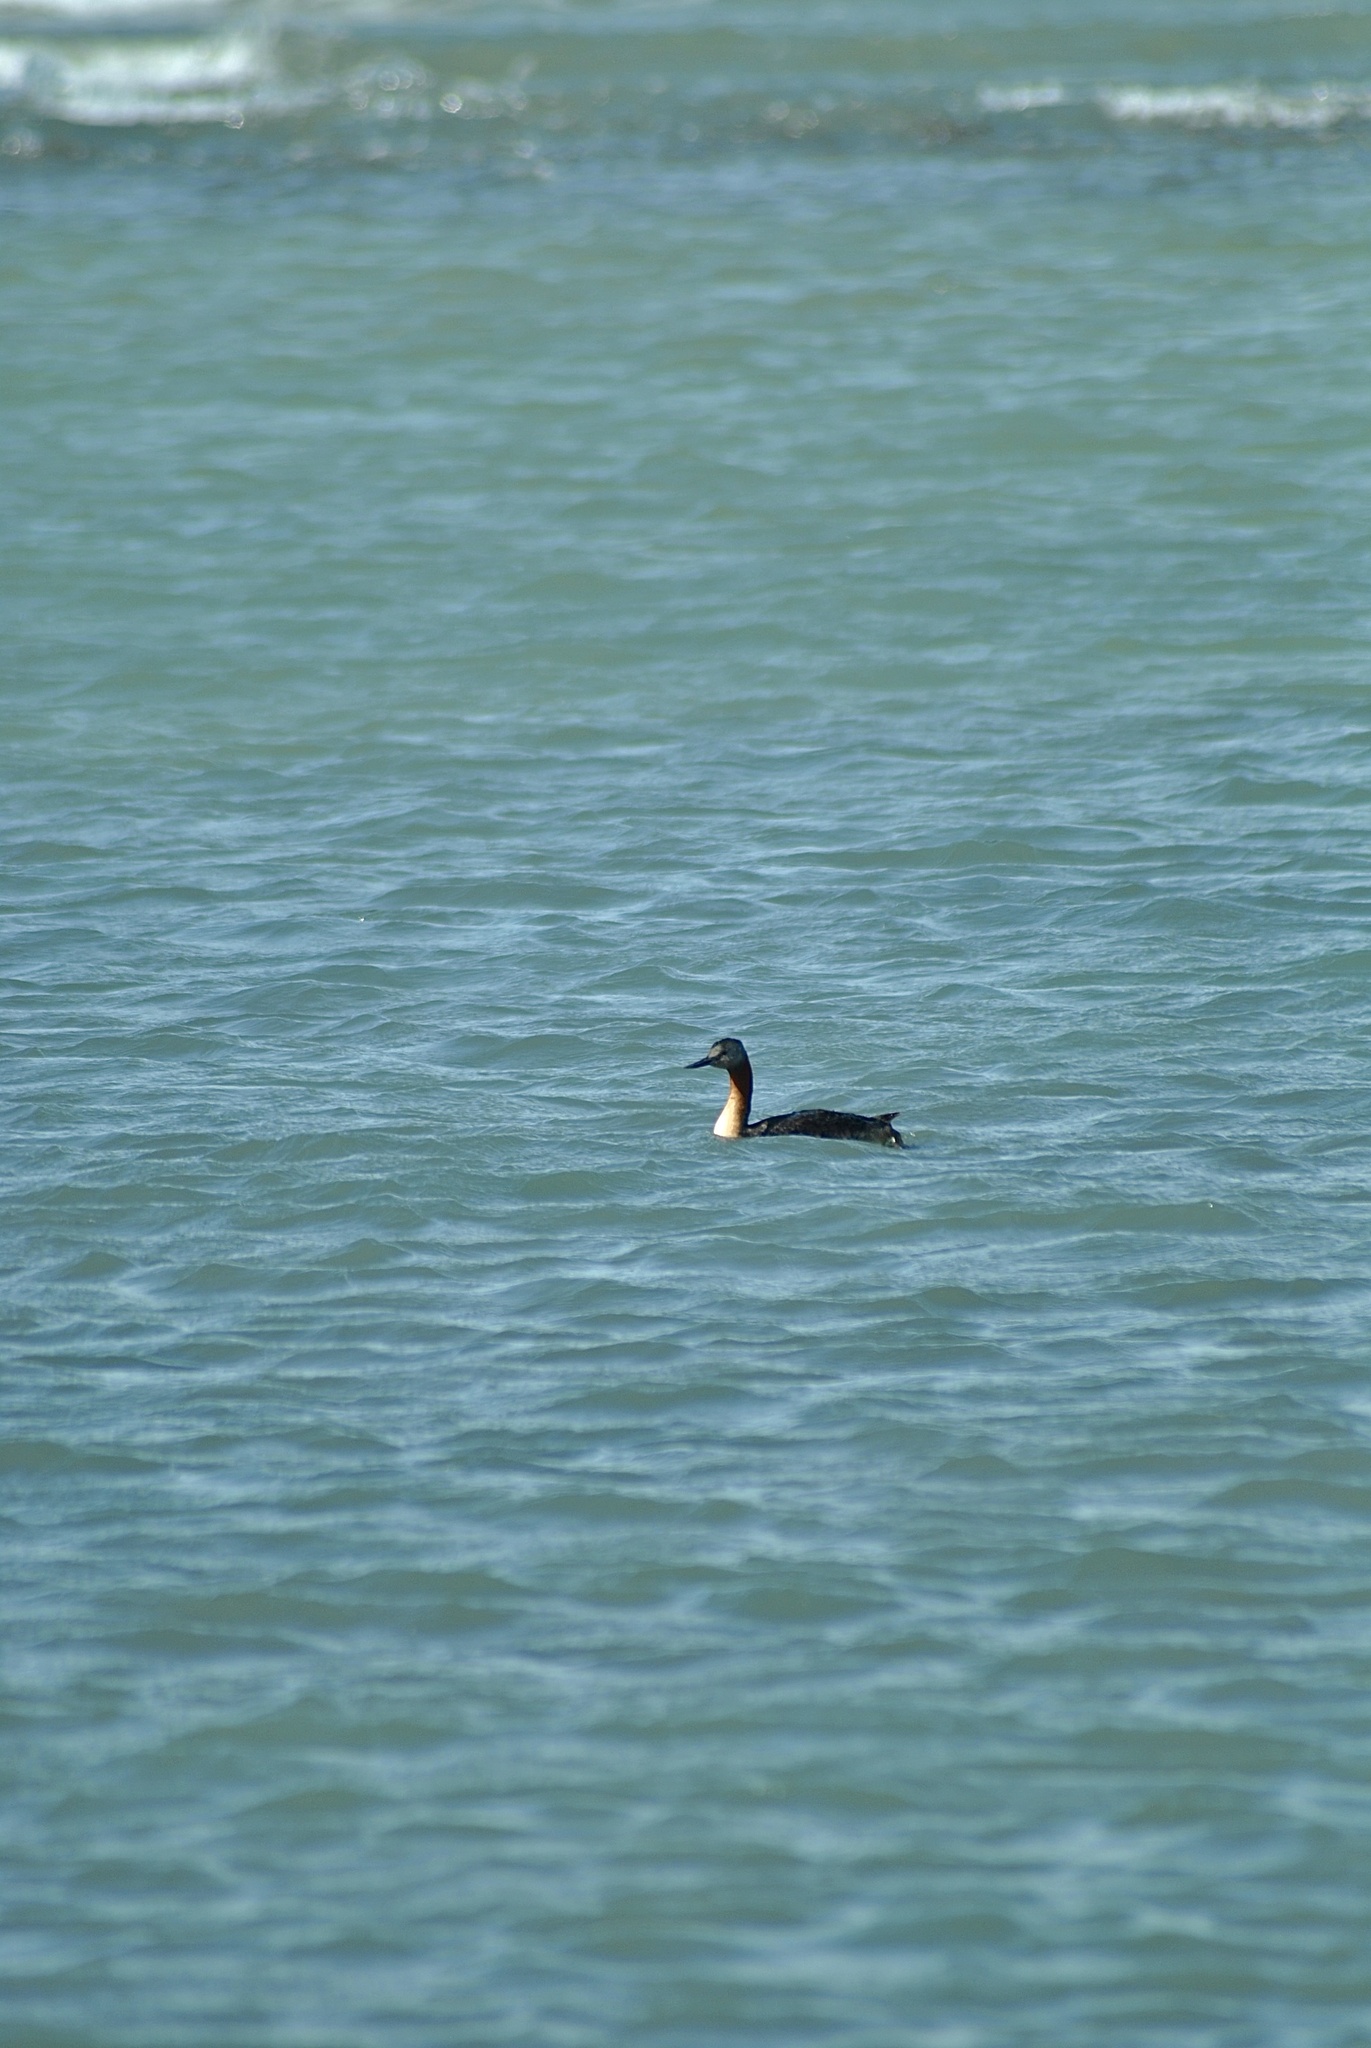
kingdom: Animalia
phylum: Chordata
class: Aves
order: Podicipediformes
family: Podicipedidae
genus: Podiceps
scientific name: Podiceps major
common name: Great grebe
